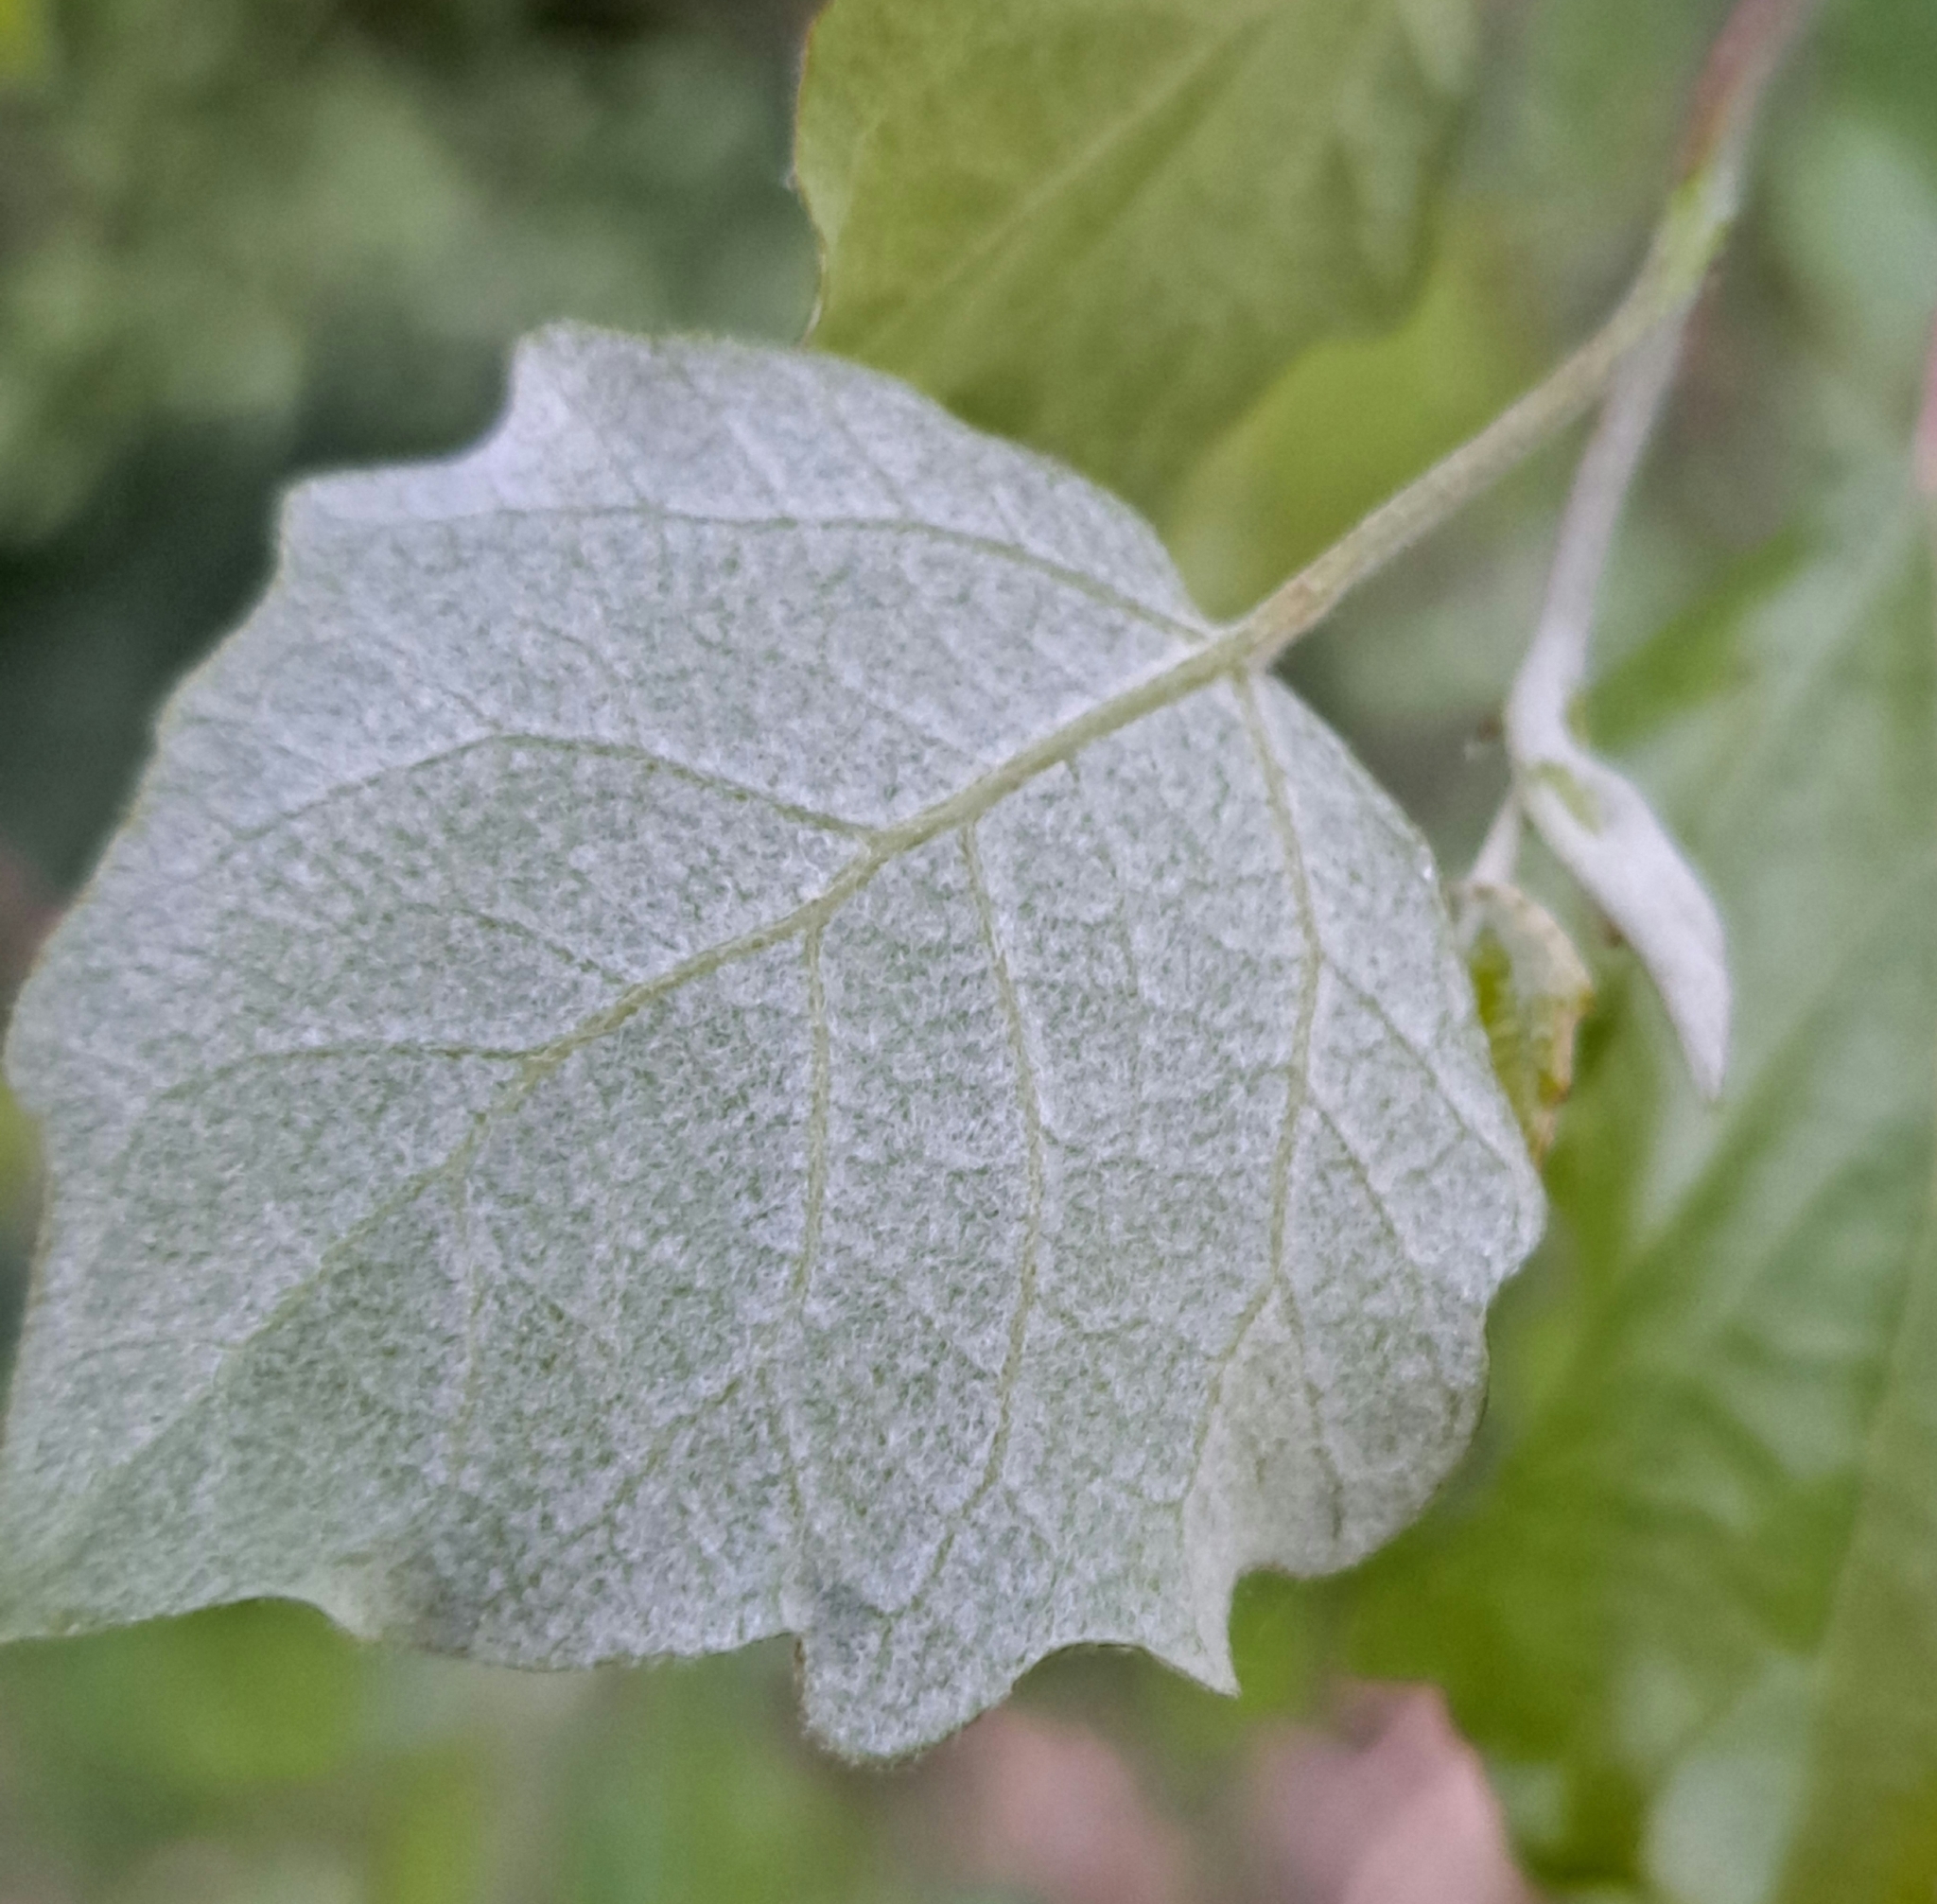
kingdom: Plantae
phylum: Tracheophyta
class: Magnoliopsida
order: Malpighiales
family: Salicaceae
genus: Populus
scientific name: Populus tremula
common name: European aspen
